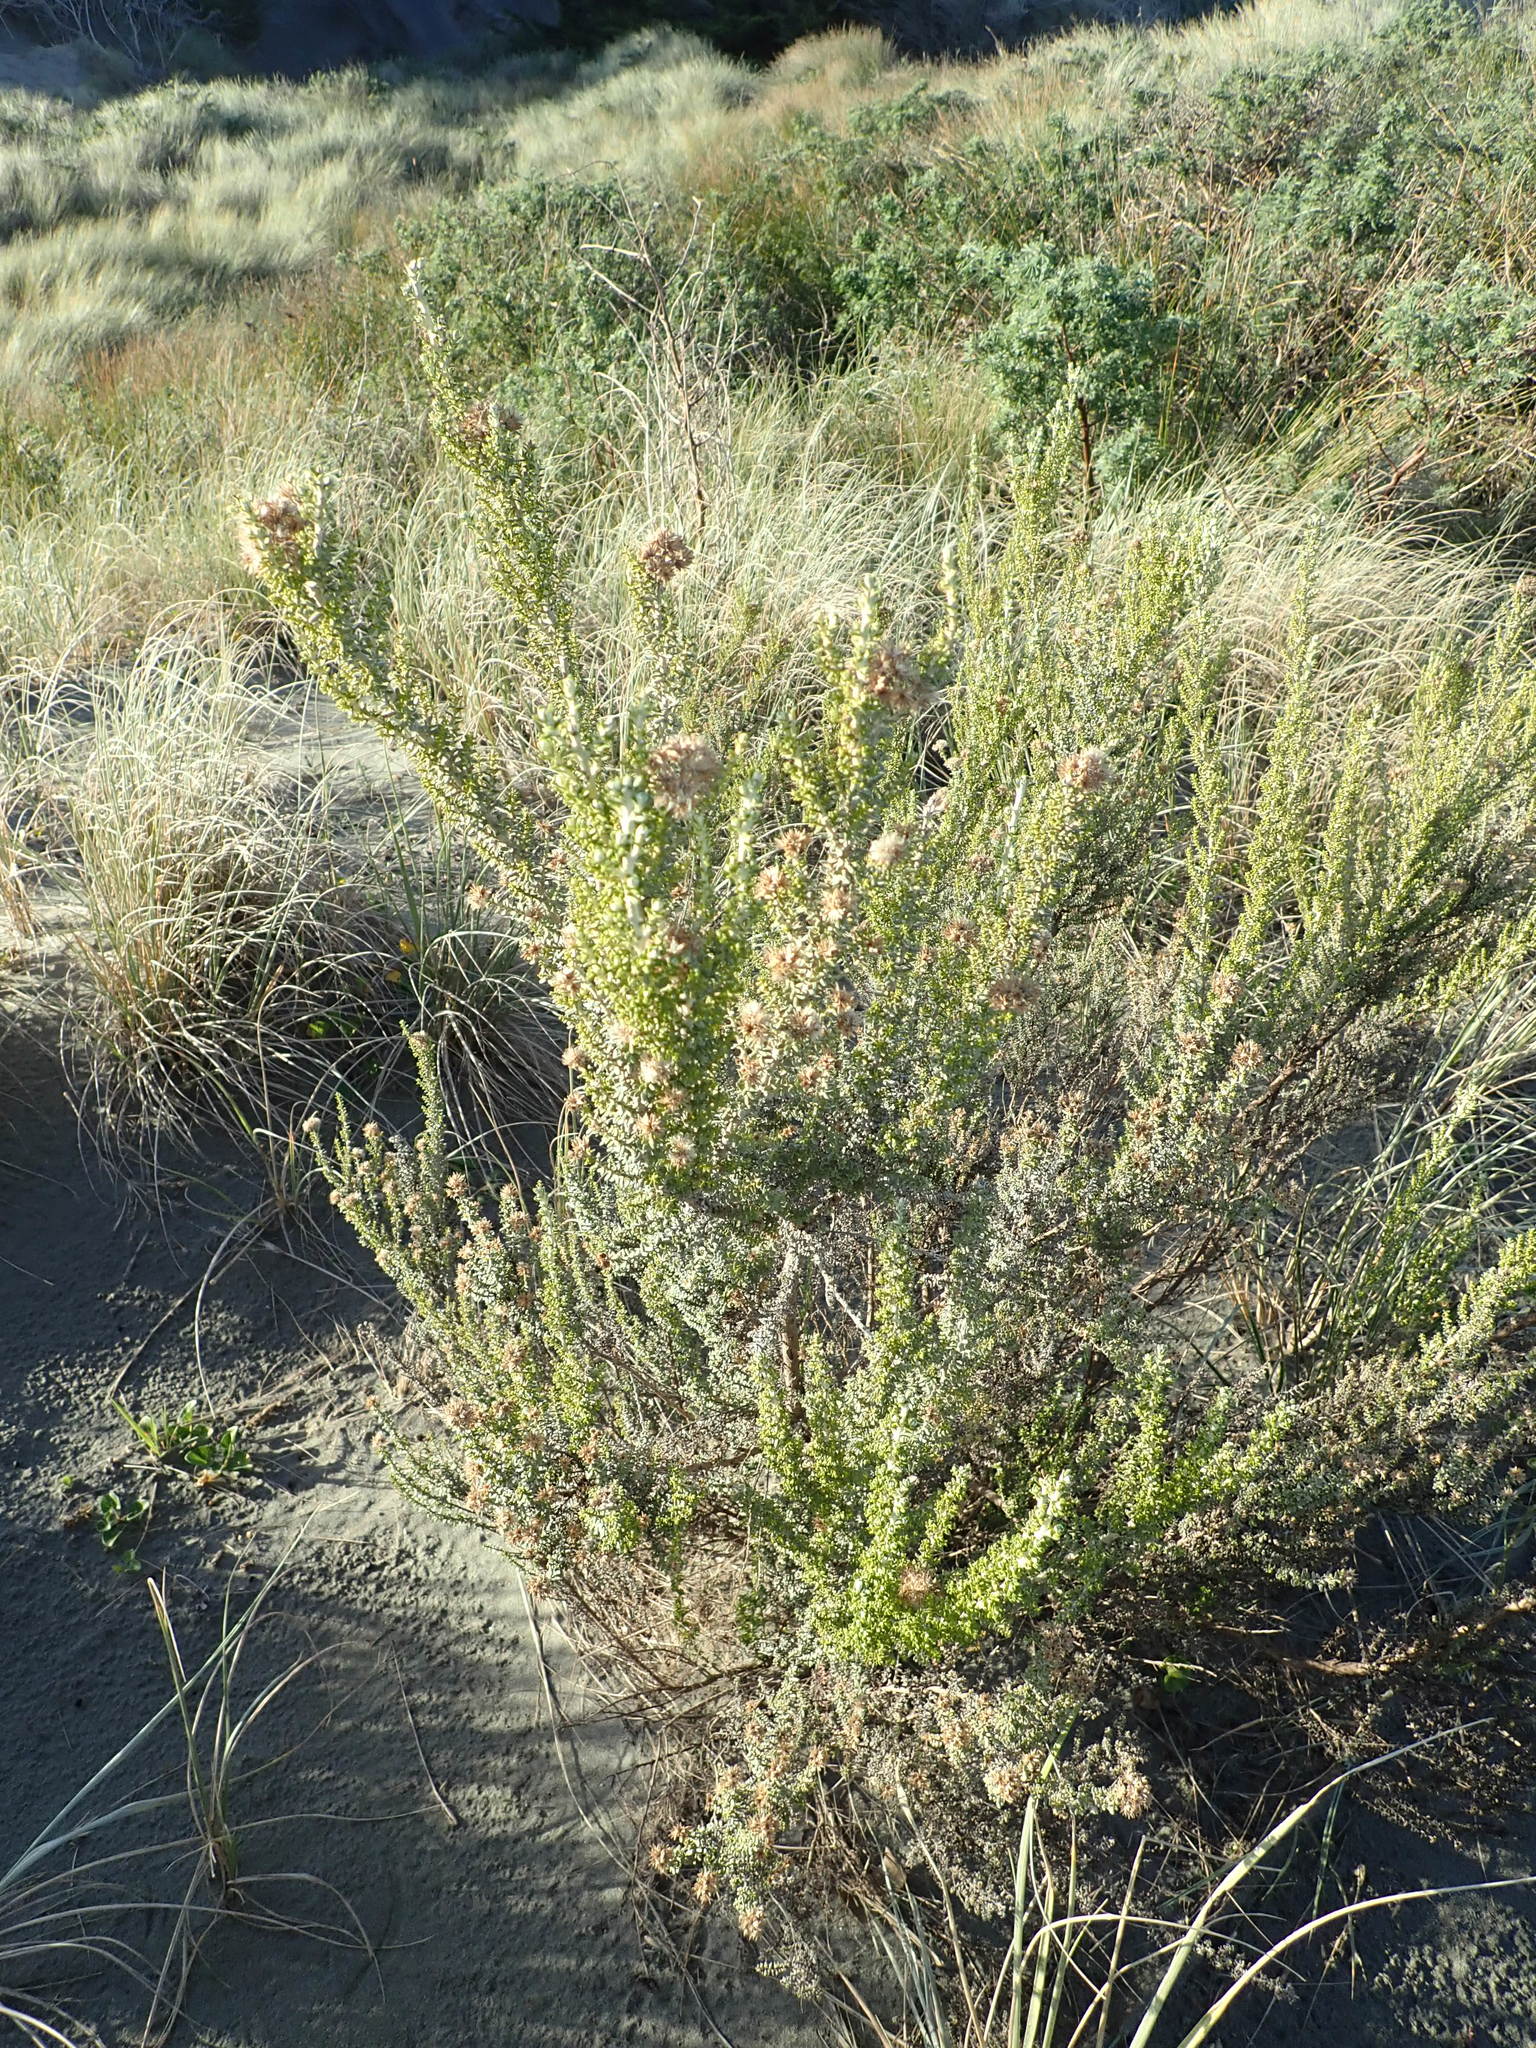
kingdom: Plantae
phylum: Tracheophyta
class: Magnoliopsida
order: Asterales
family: Asteraceae
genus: Ozothamnus
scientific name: Ozothamnus leptophyllus
